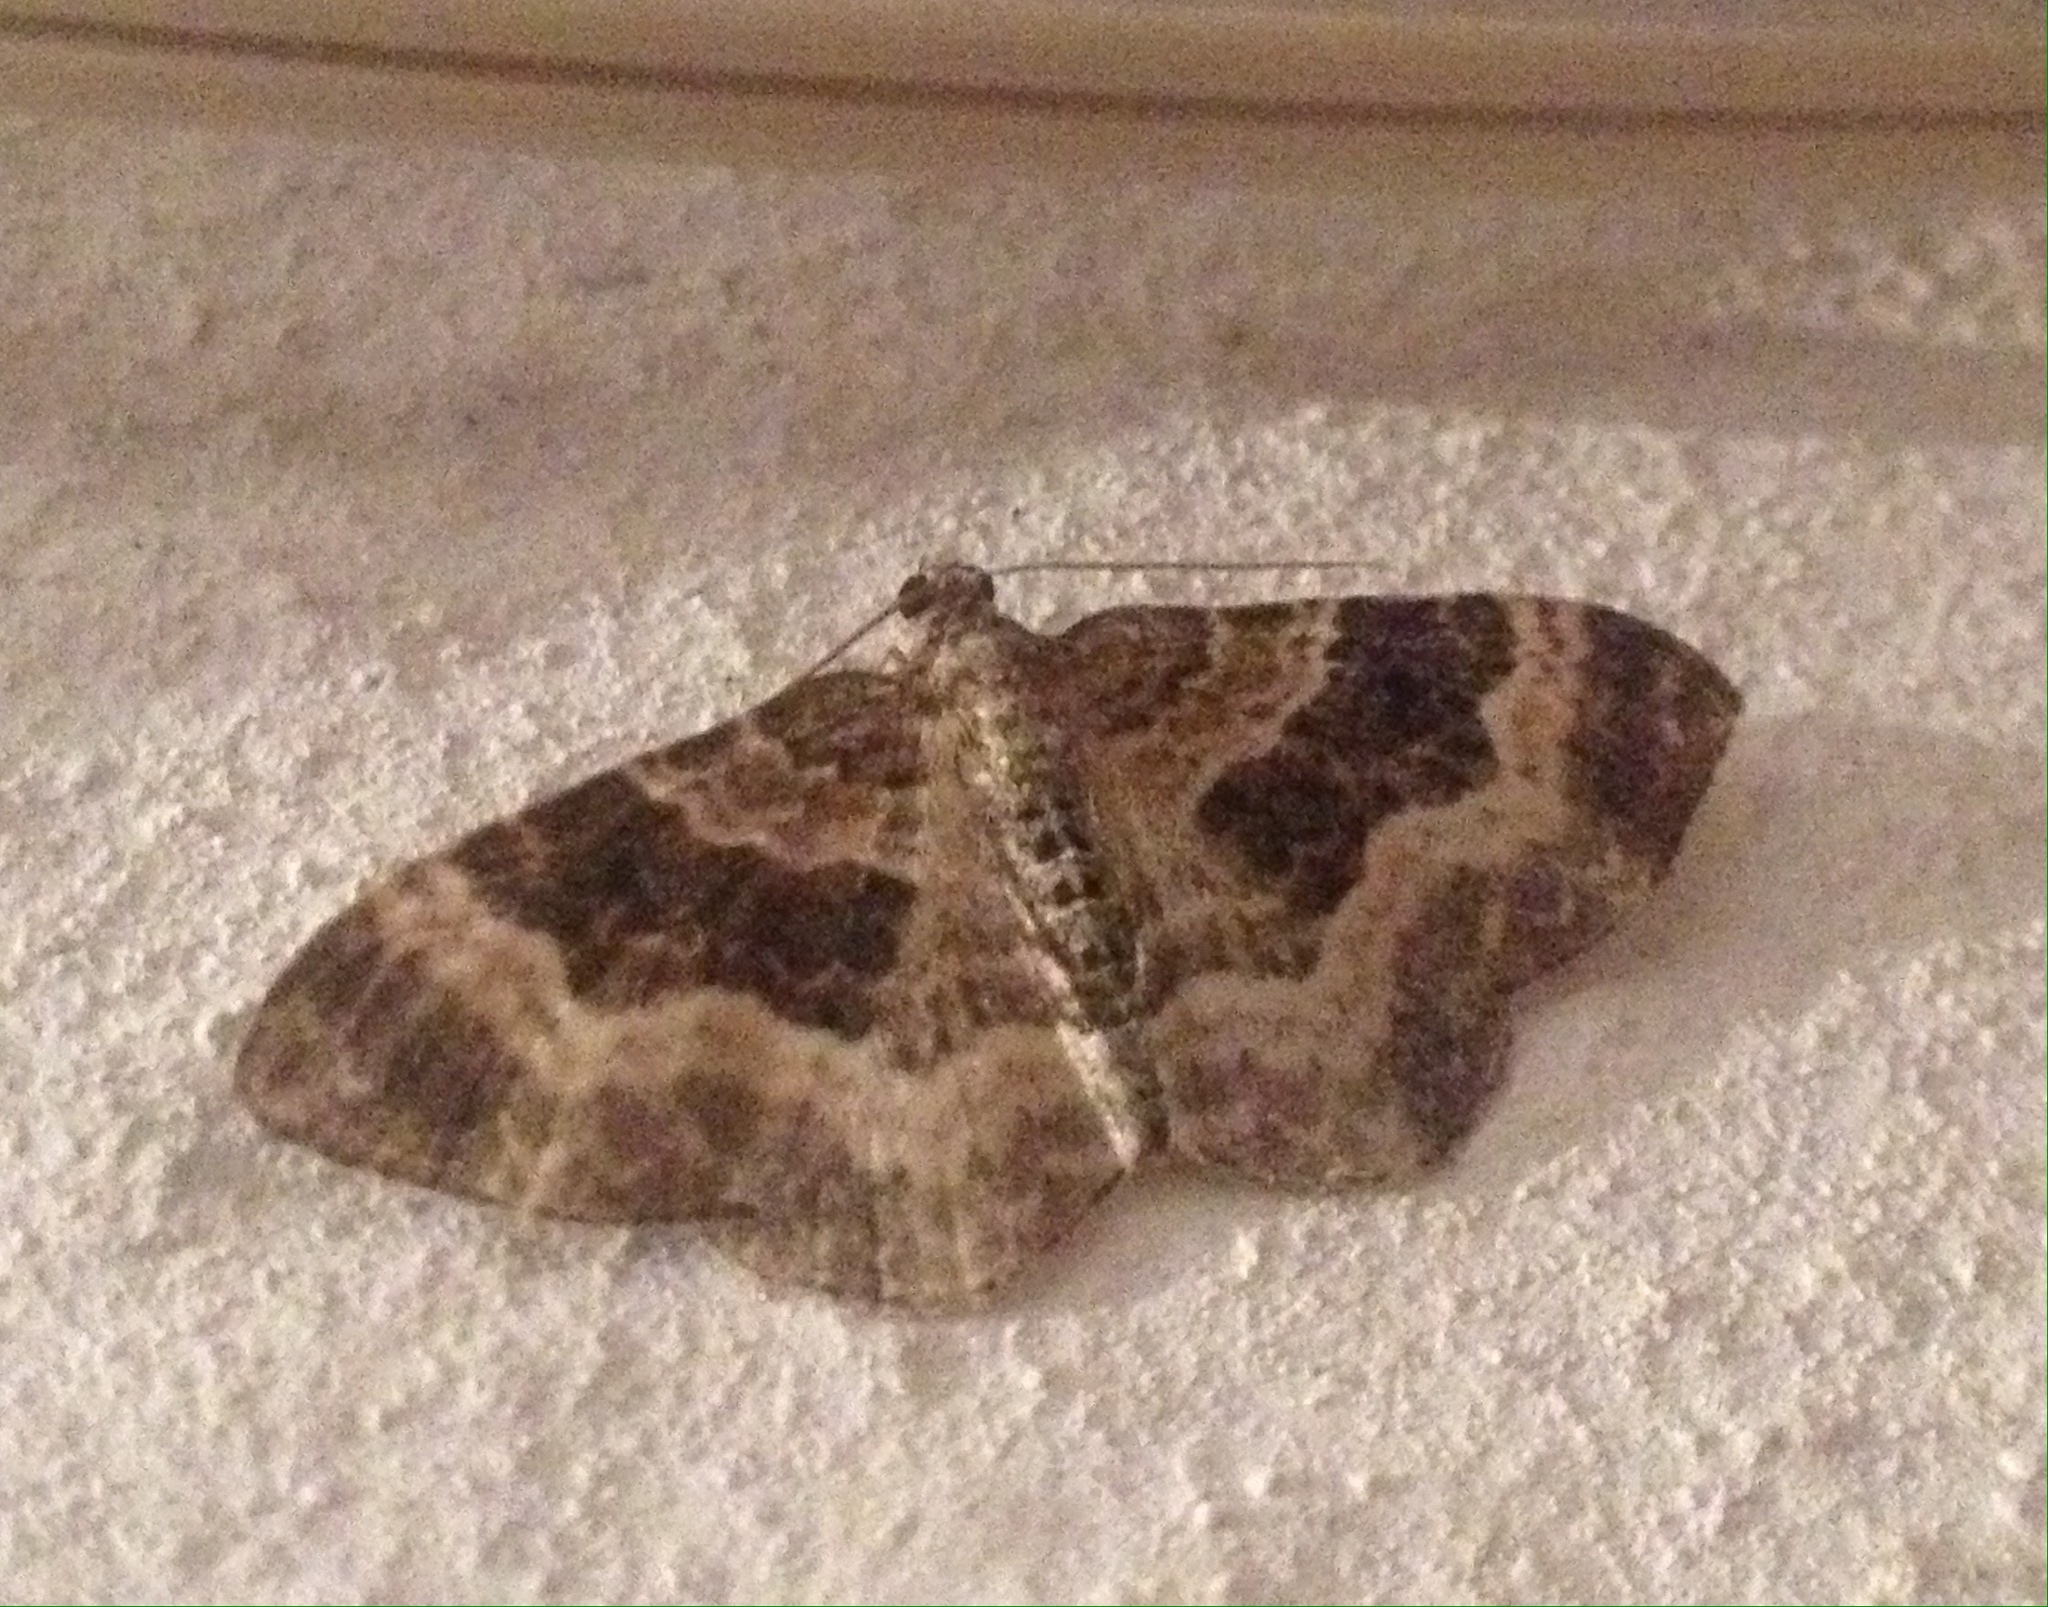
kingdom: Animalia
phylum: Arthropoda
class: Insecta
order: Lepidoptera
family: Geometridae
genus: Epirrhoe
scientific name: Epirrhoe alternata
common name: Common carpet
